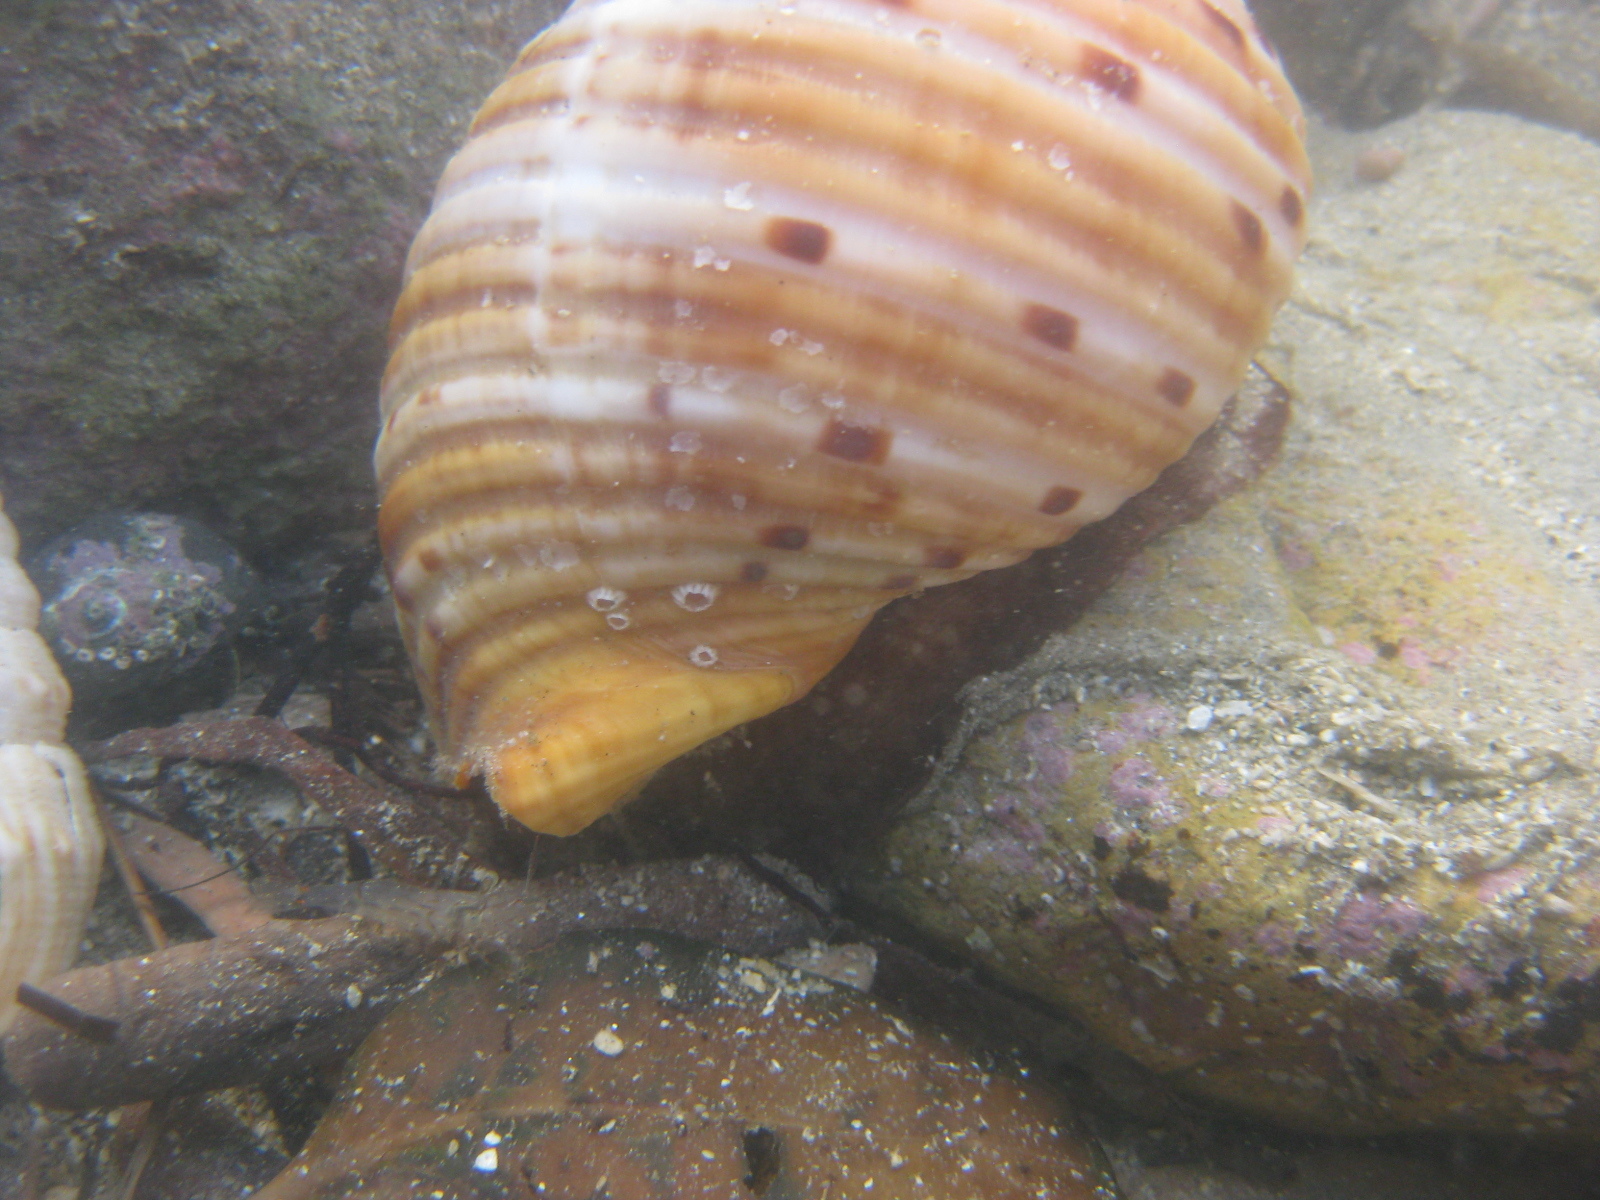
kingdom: Animalia
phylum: Mollusca
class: Gastropoda
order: Littorinimorpha
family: Tonnidae
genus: Tonna
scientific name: Tonna tankervillii
